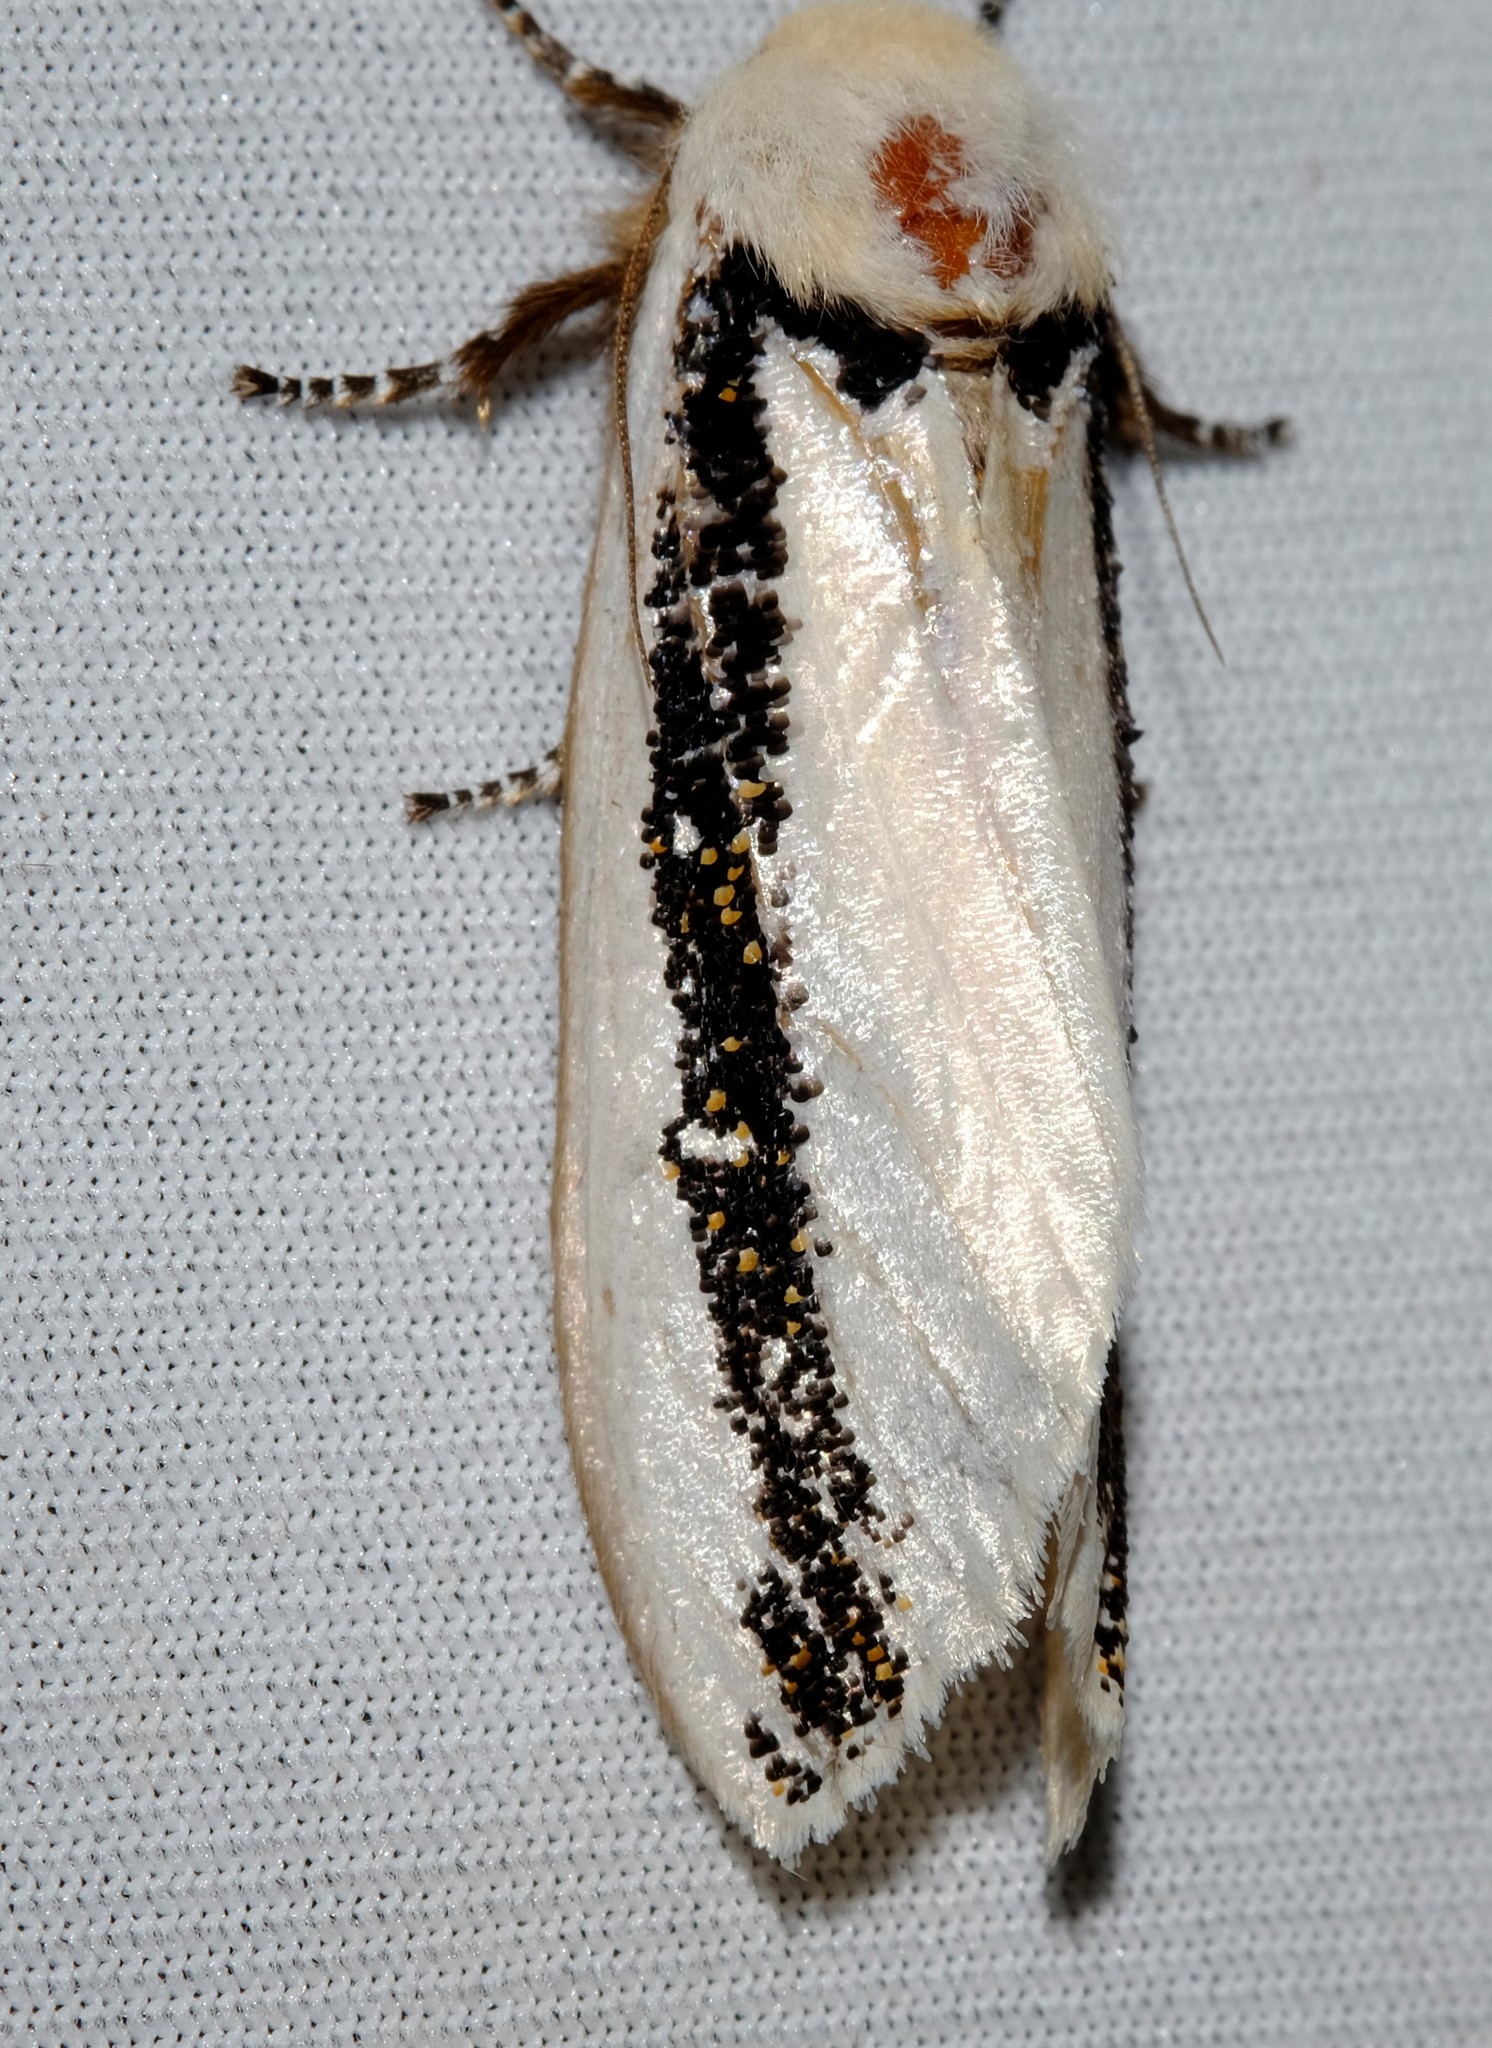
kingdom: Animalia
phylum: Arthropoda
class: Insecta
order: Lepidoptera
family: Oenosandridae
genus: Oenosandra
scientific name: Oenosandra boisduvalii
